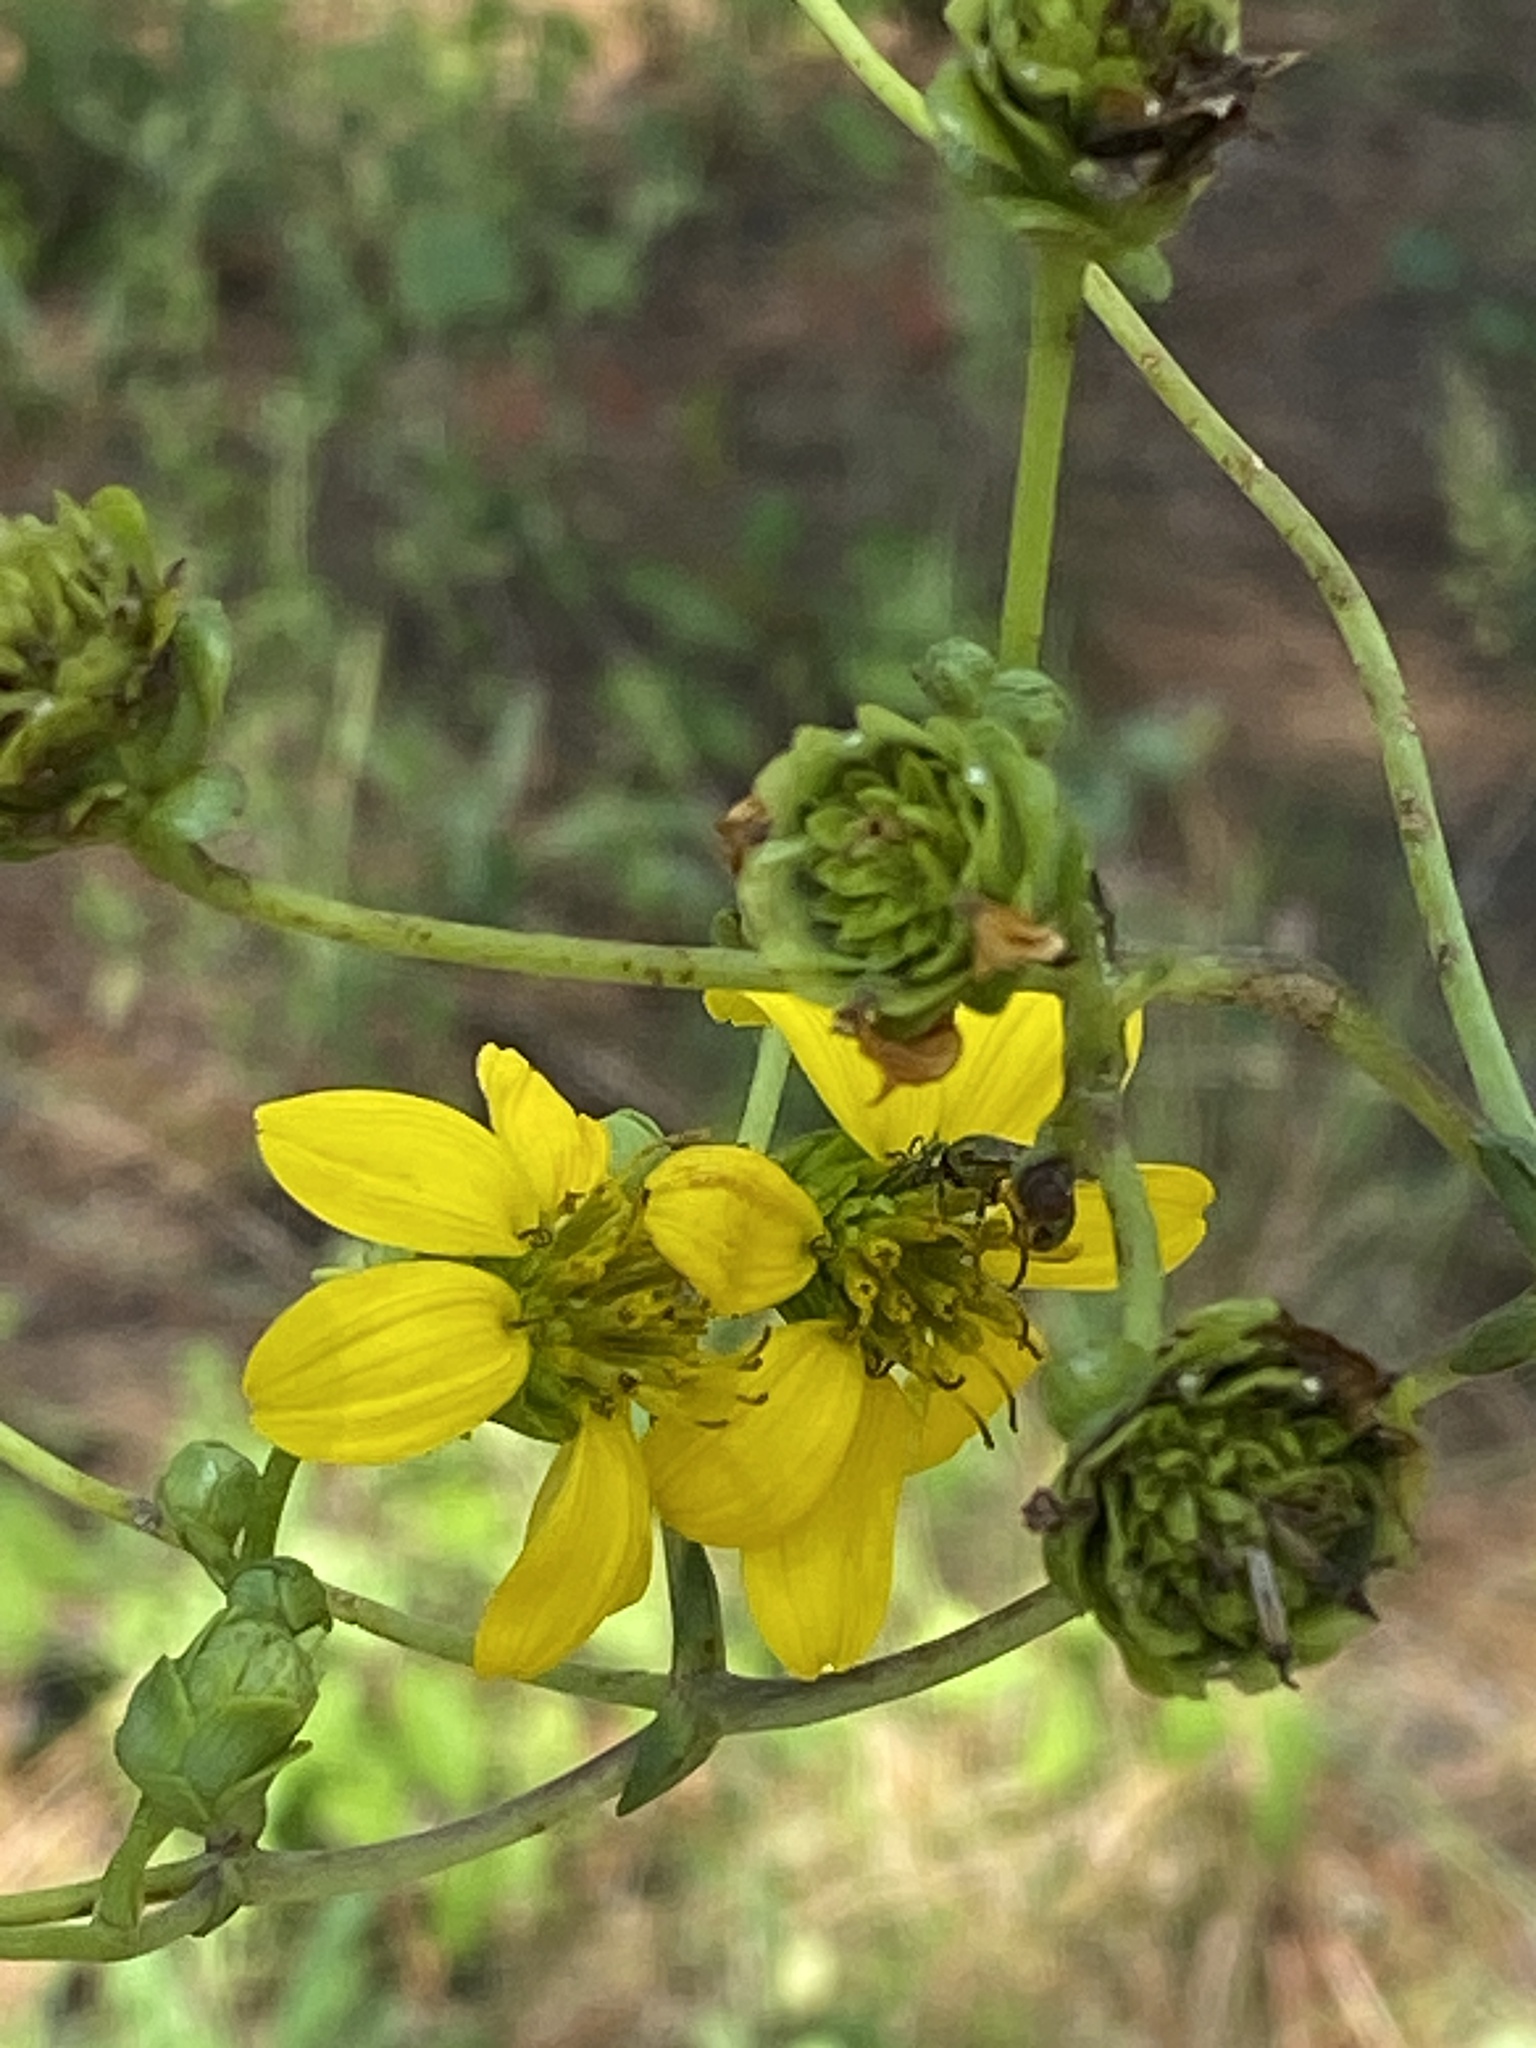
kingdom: Plantae
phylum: Tracheophyta
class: Magnoliopsida
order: Asterales
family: Asteraceae
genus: Silphium
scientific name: Silphium compositum
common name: Lesser basal-leaf rosinweed
